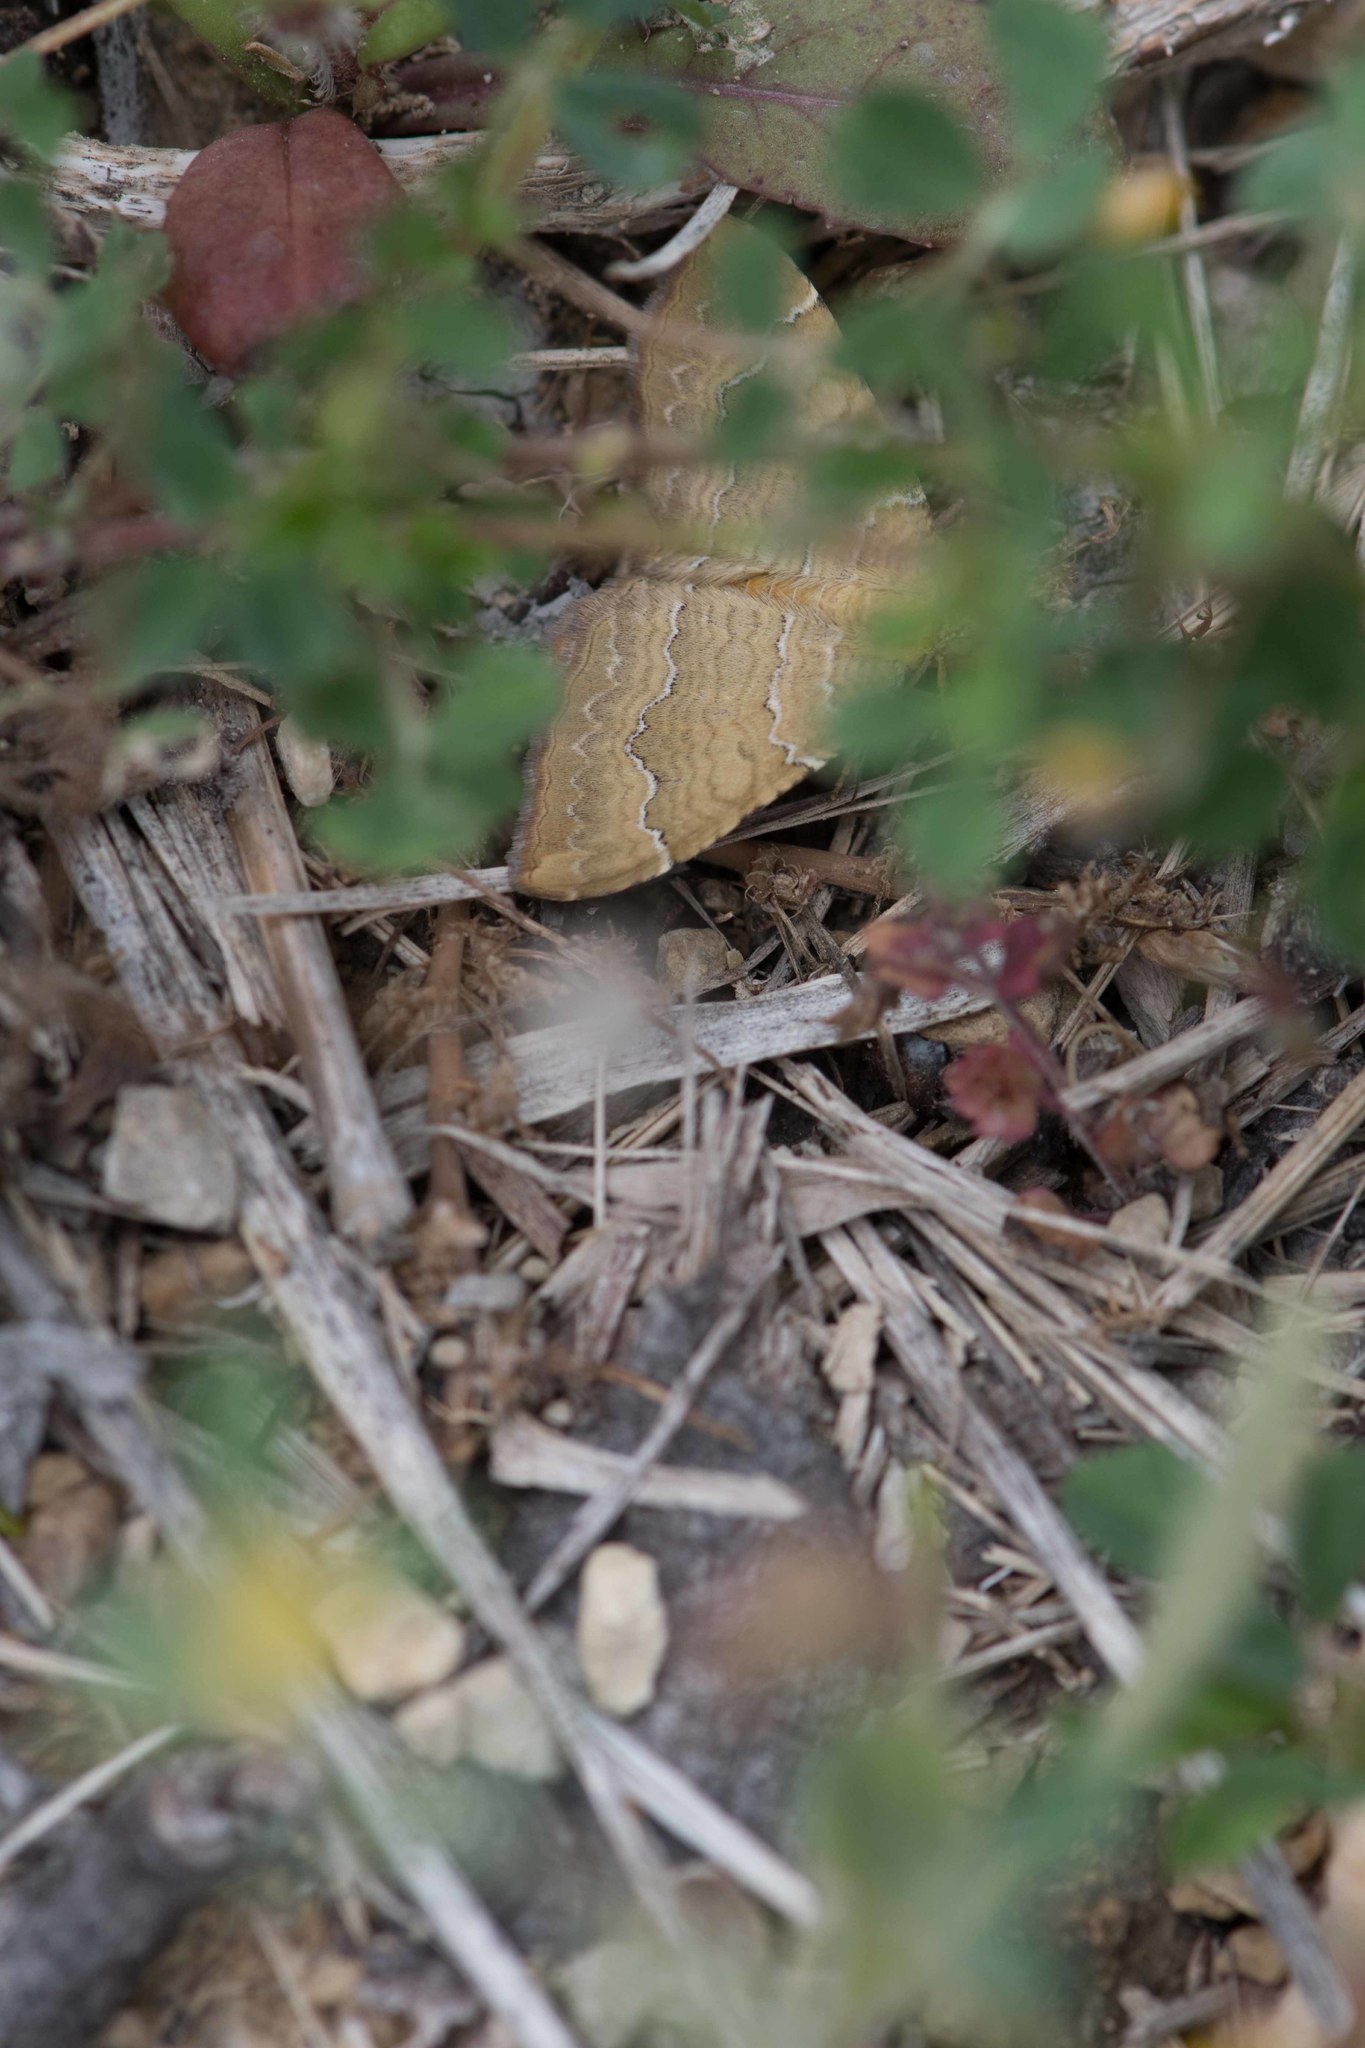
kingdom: Animalia
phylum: Arthropoda
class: Insecta
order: Lepidoptera
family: Geometridae
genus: Camptogramma
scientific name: Camptogramma bilineata
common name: Yellow shell
